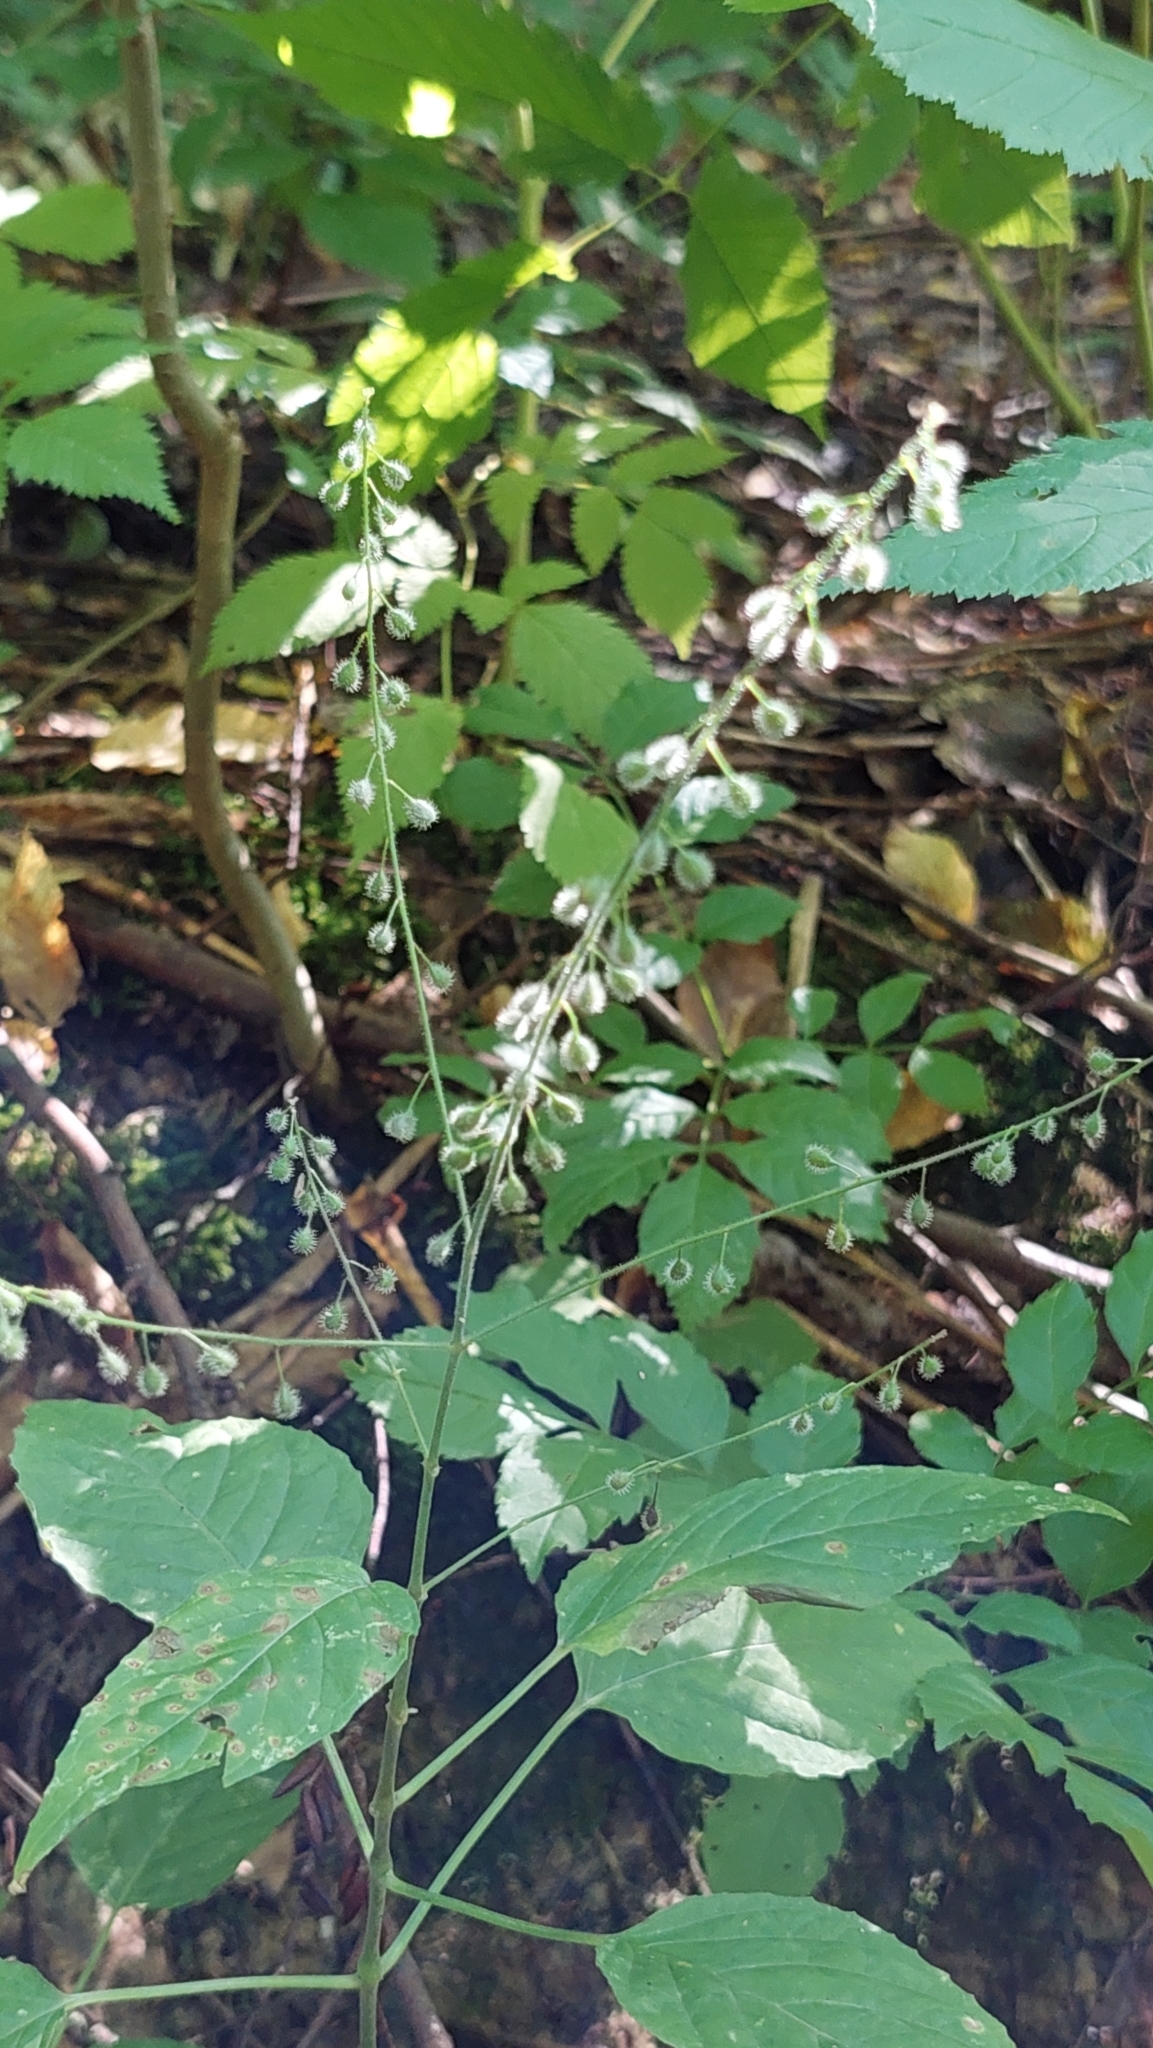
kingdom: Plantae
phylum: Tracheophyta
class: Magnoliopsida
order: Myrtales
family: Onagraceae
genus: Circaea
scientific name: Circaea lutetiana
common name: Enchanter's-nightshade
